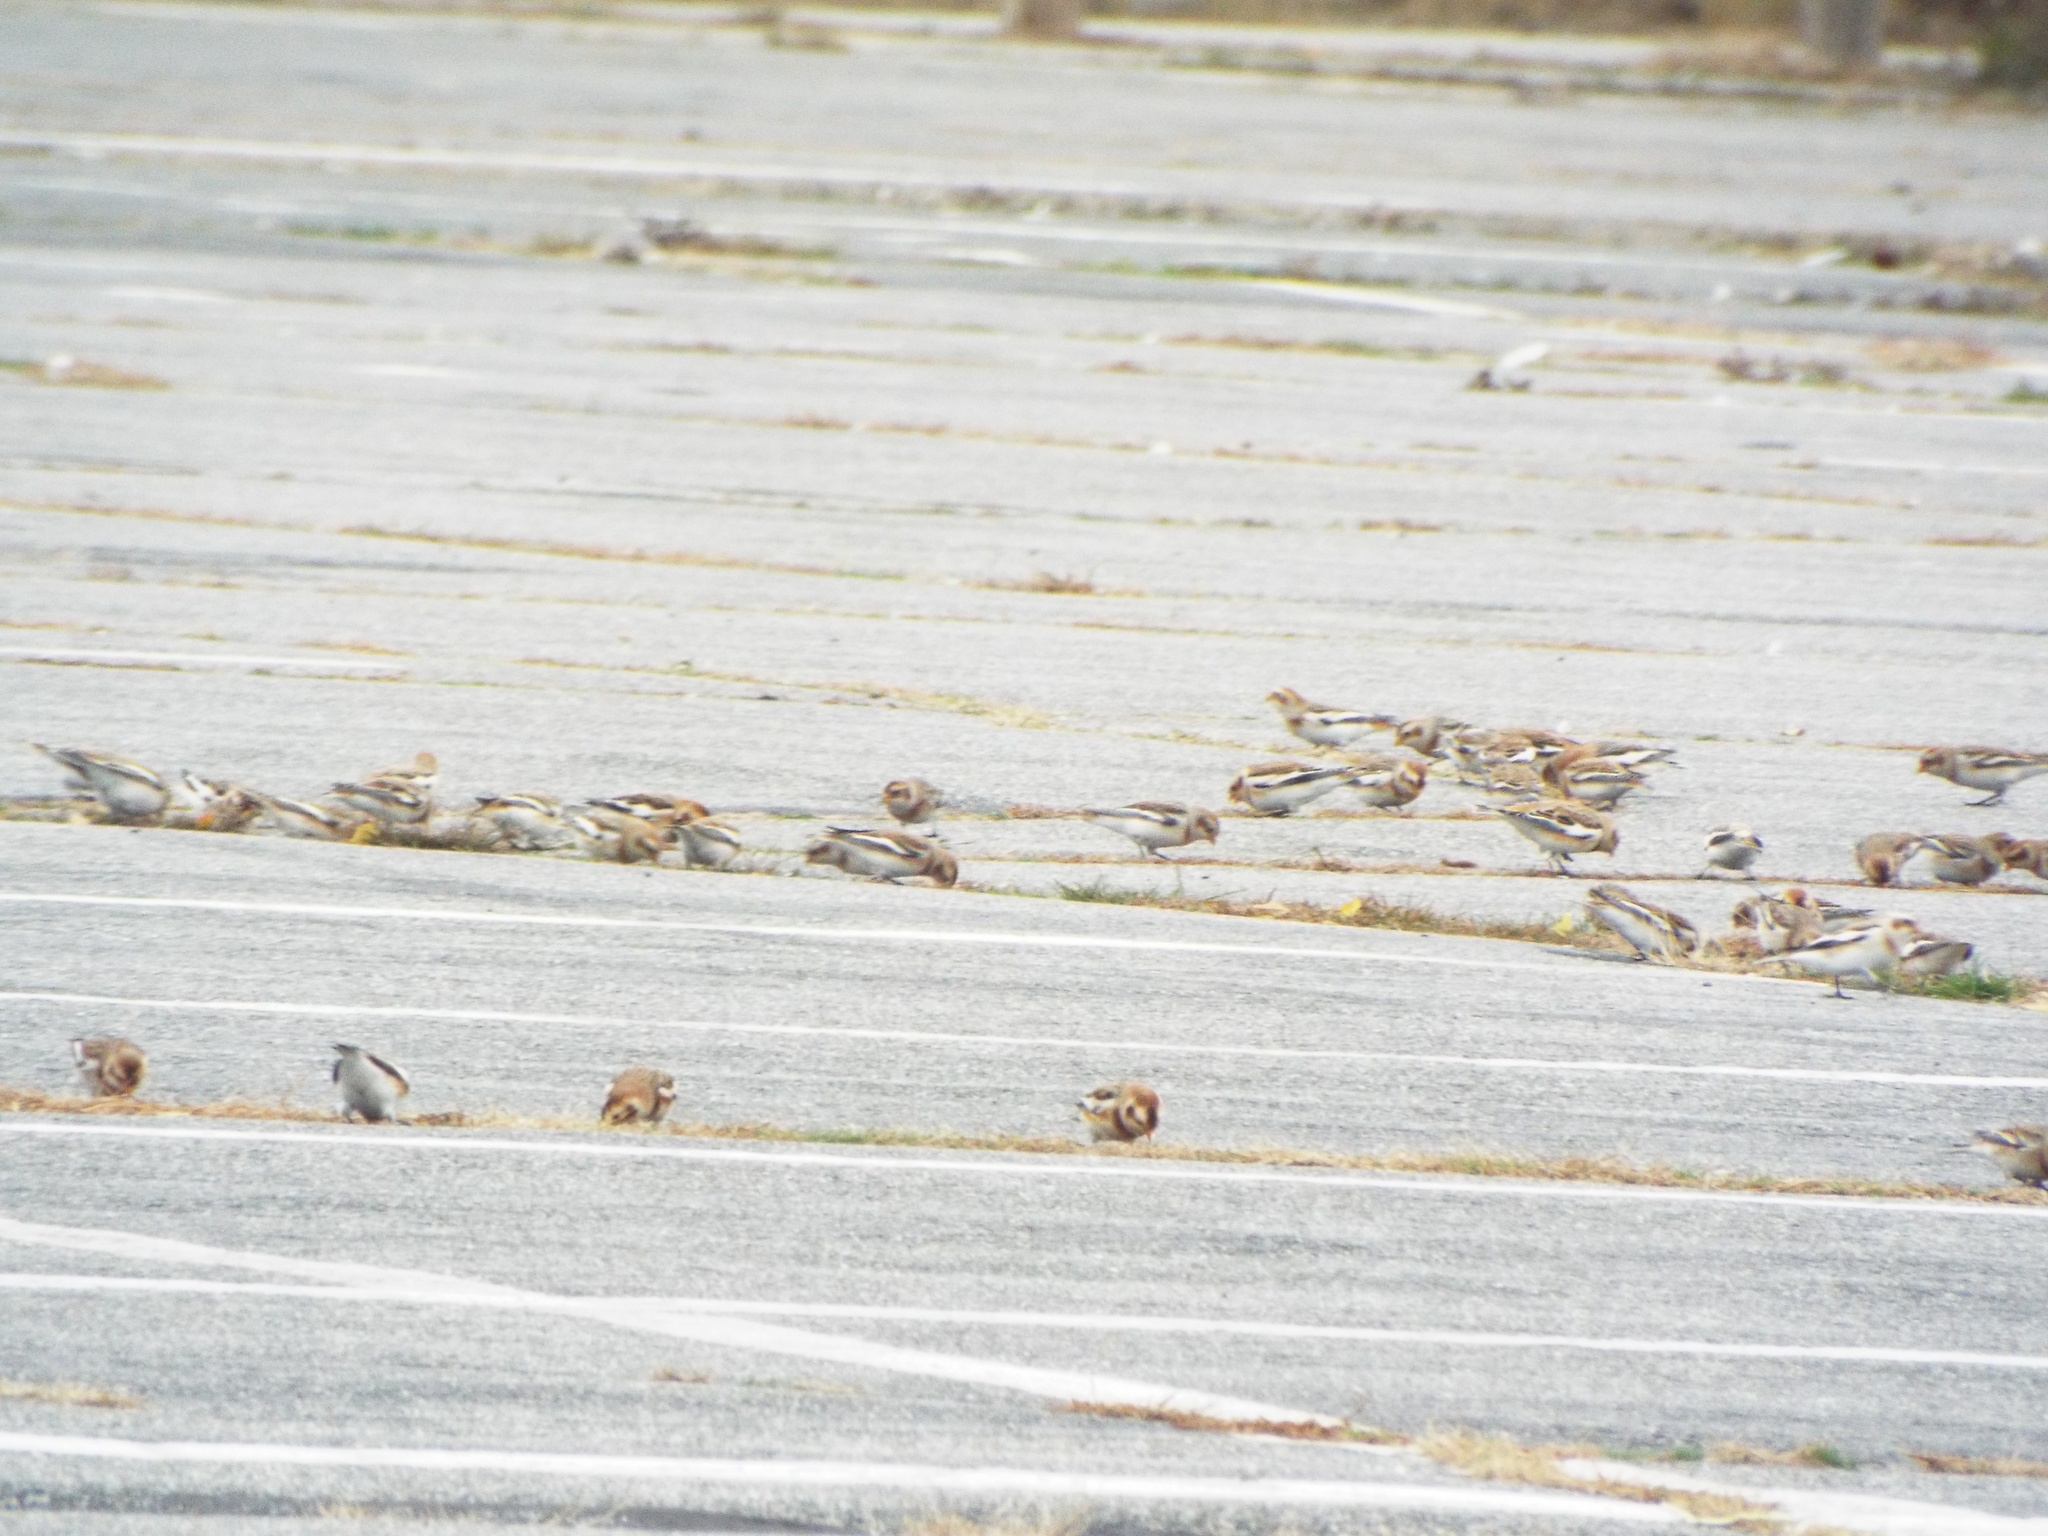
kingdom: Animalia
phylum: Chordata
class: Aves
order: Passeriformes
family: Calcariidae
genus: Plectrophenax
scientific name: Plectrophenax nivalis
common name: Snow bunting
